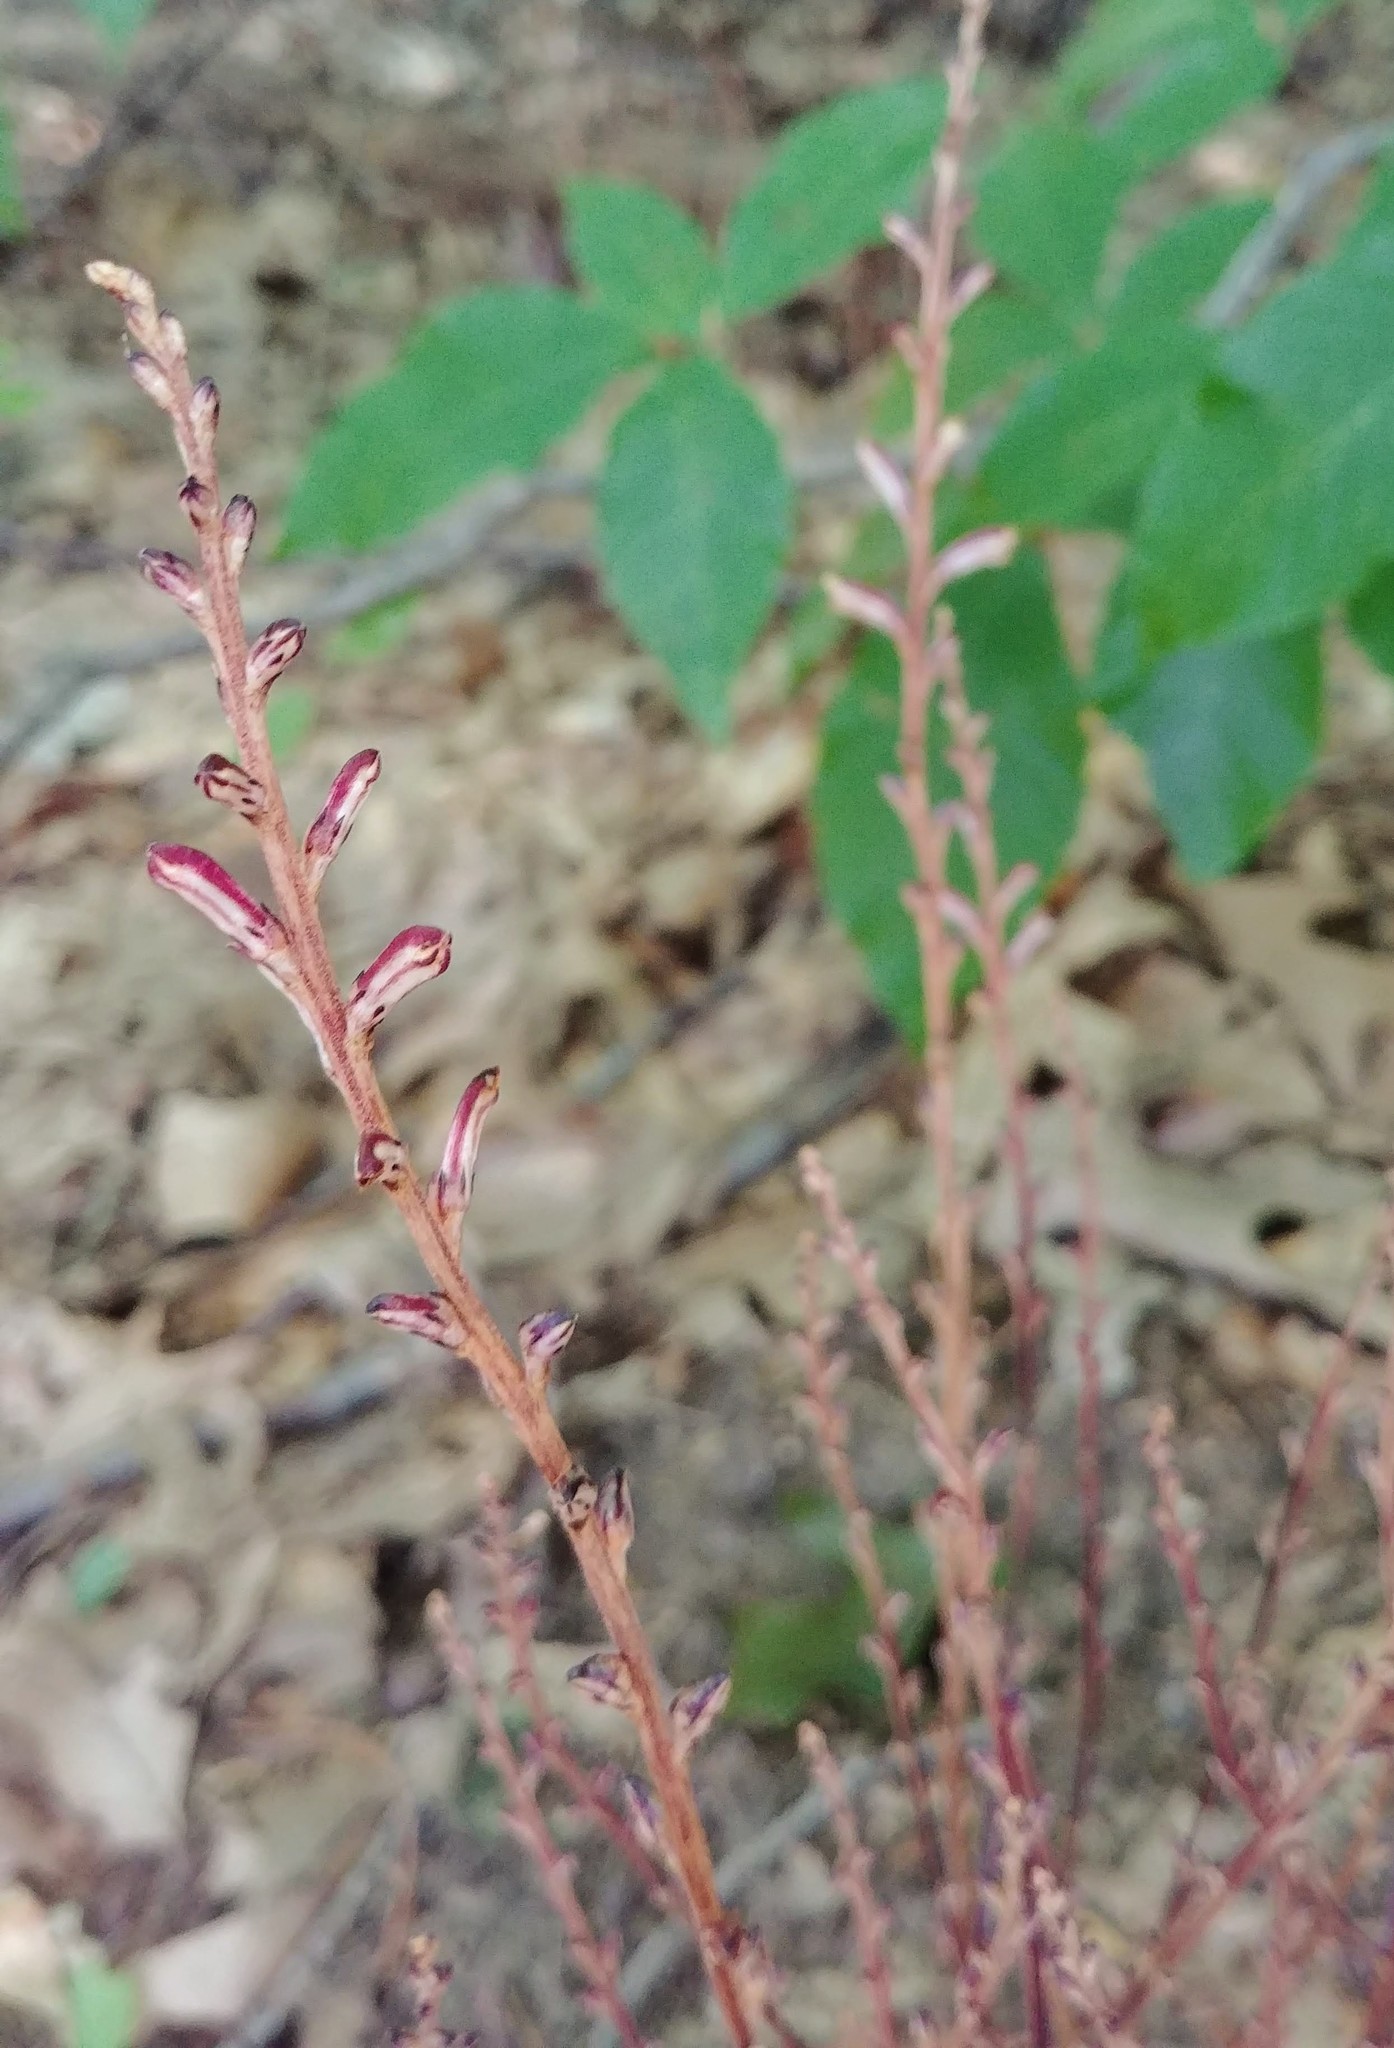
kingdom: Plantae
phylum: Tracheophyta
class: Magnoliopsida
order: Lamiales
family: Orobanchaceae
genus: Epifagus
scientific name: Epifagus virginiana
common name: Beechdrops
